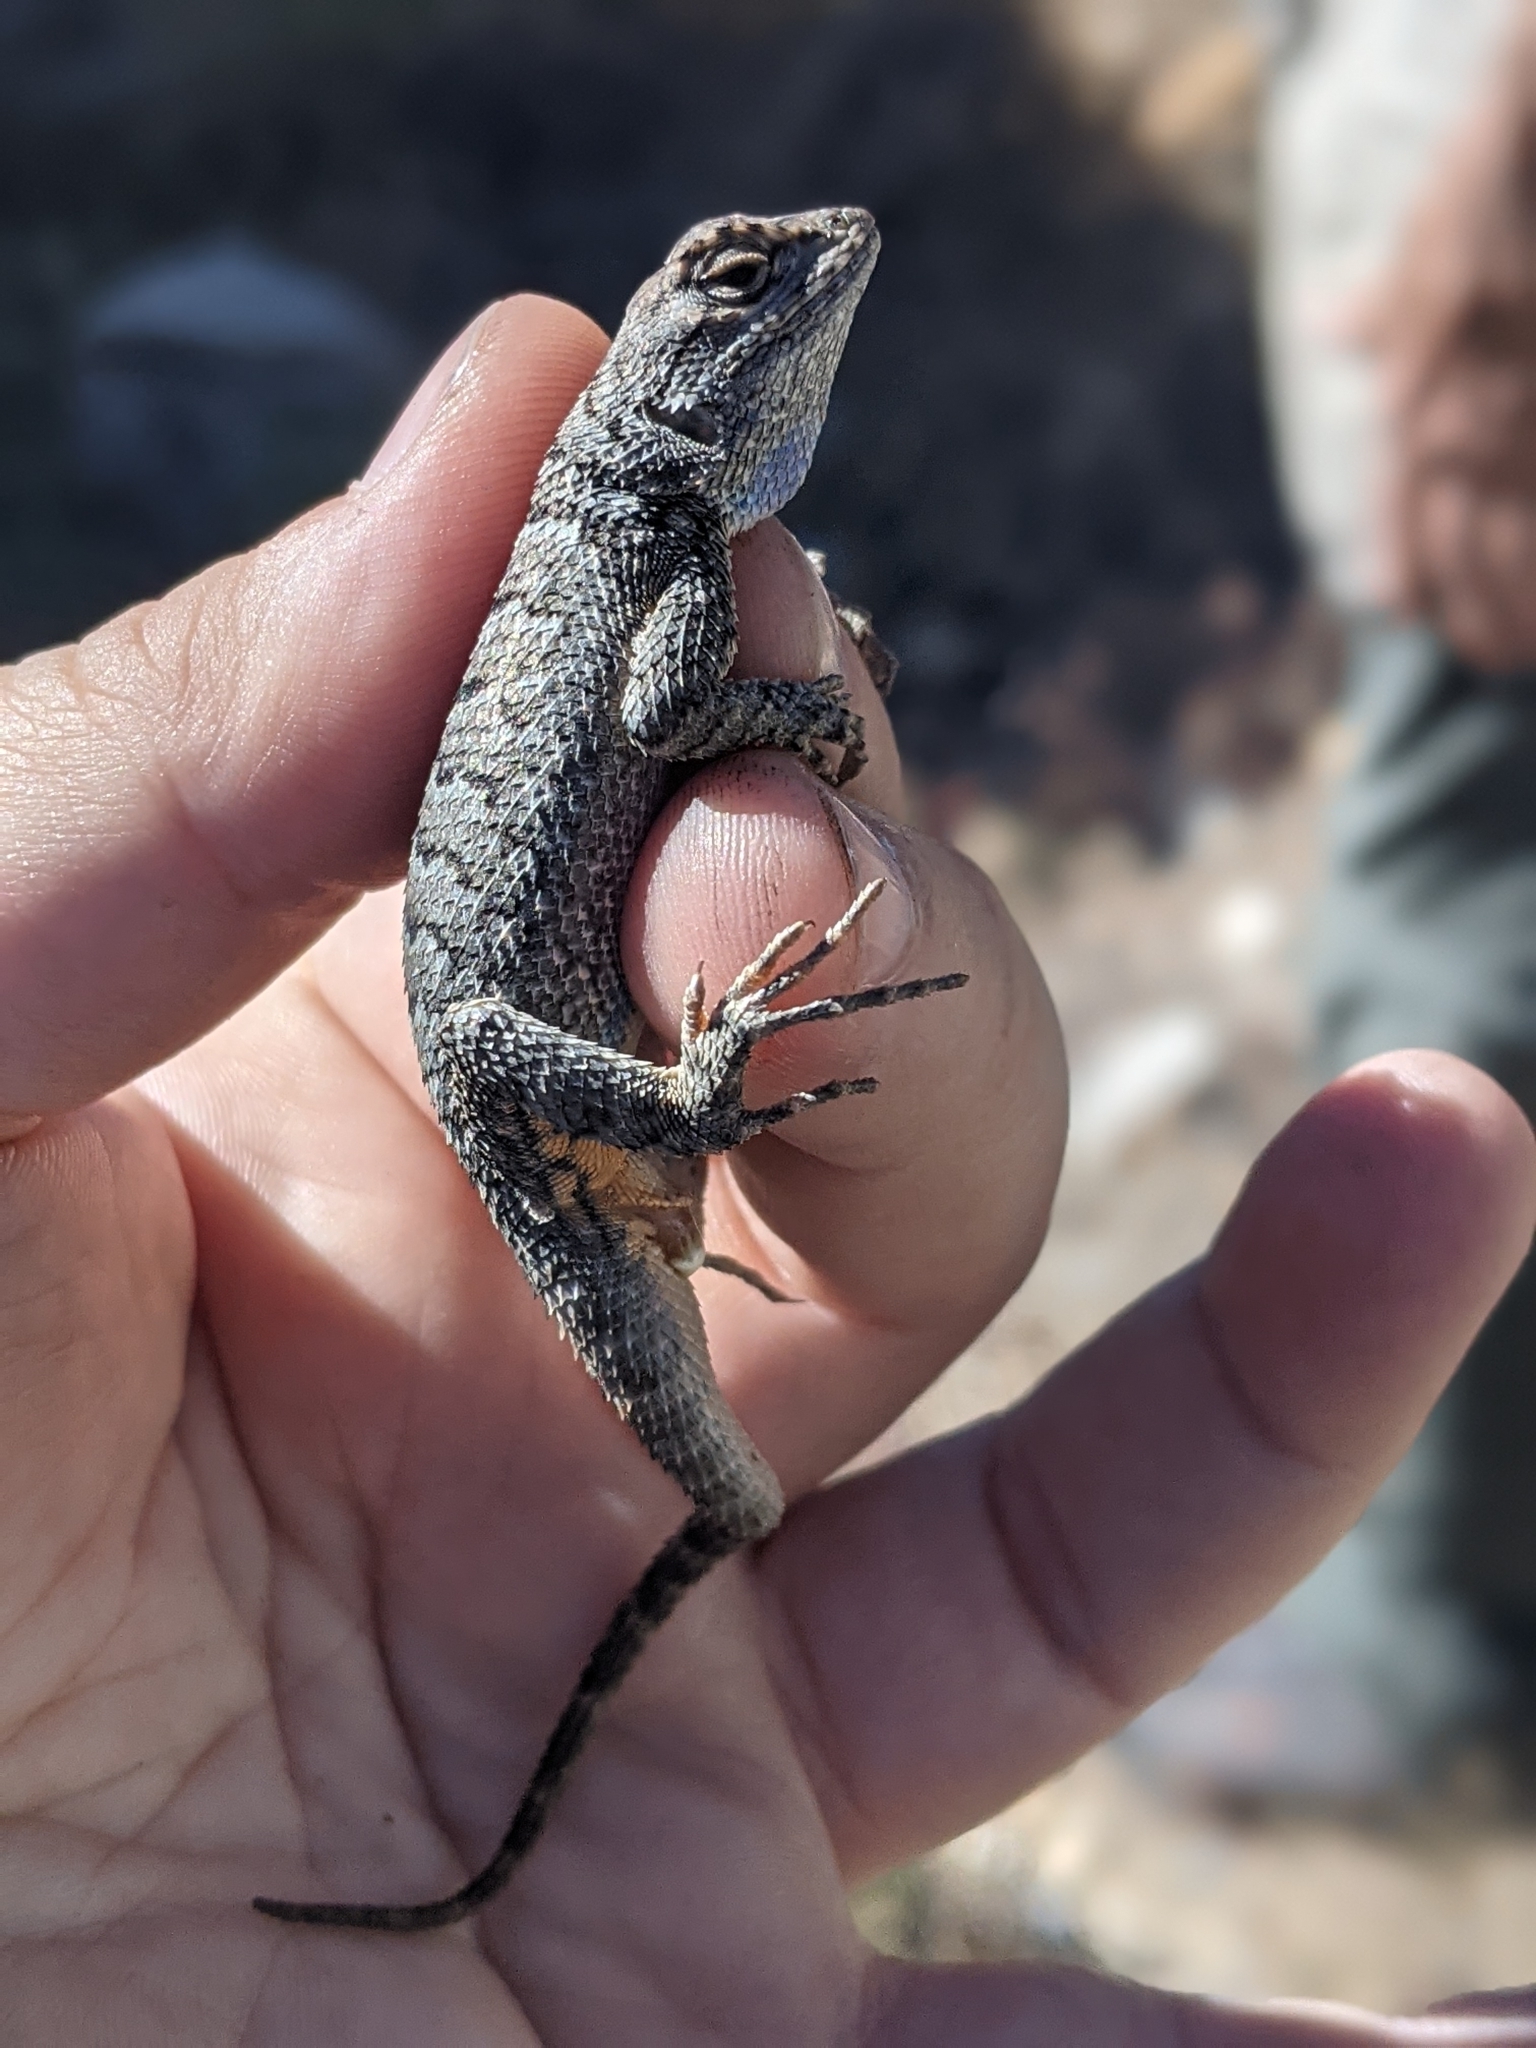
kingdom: Animalia
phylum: Chordata
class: Squamata
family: Phrynosomatidae
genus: Sceloporus
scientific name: Sceloporus occidentalis
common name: Western fence lizard
